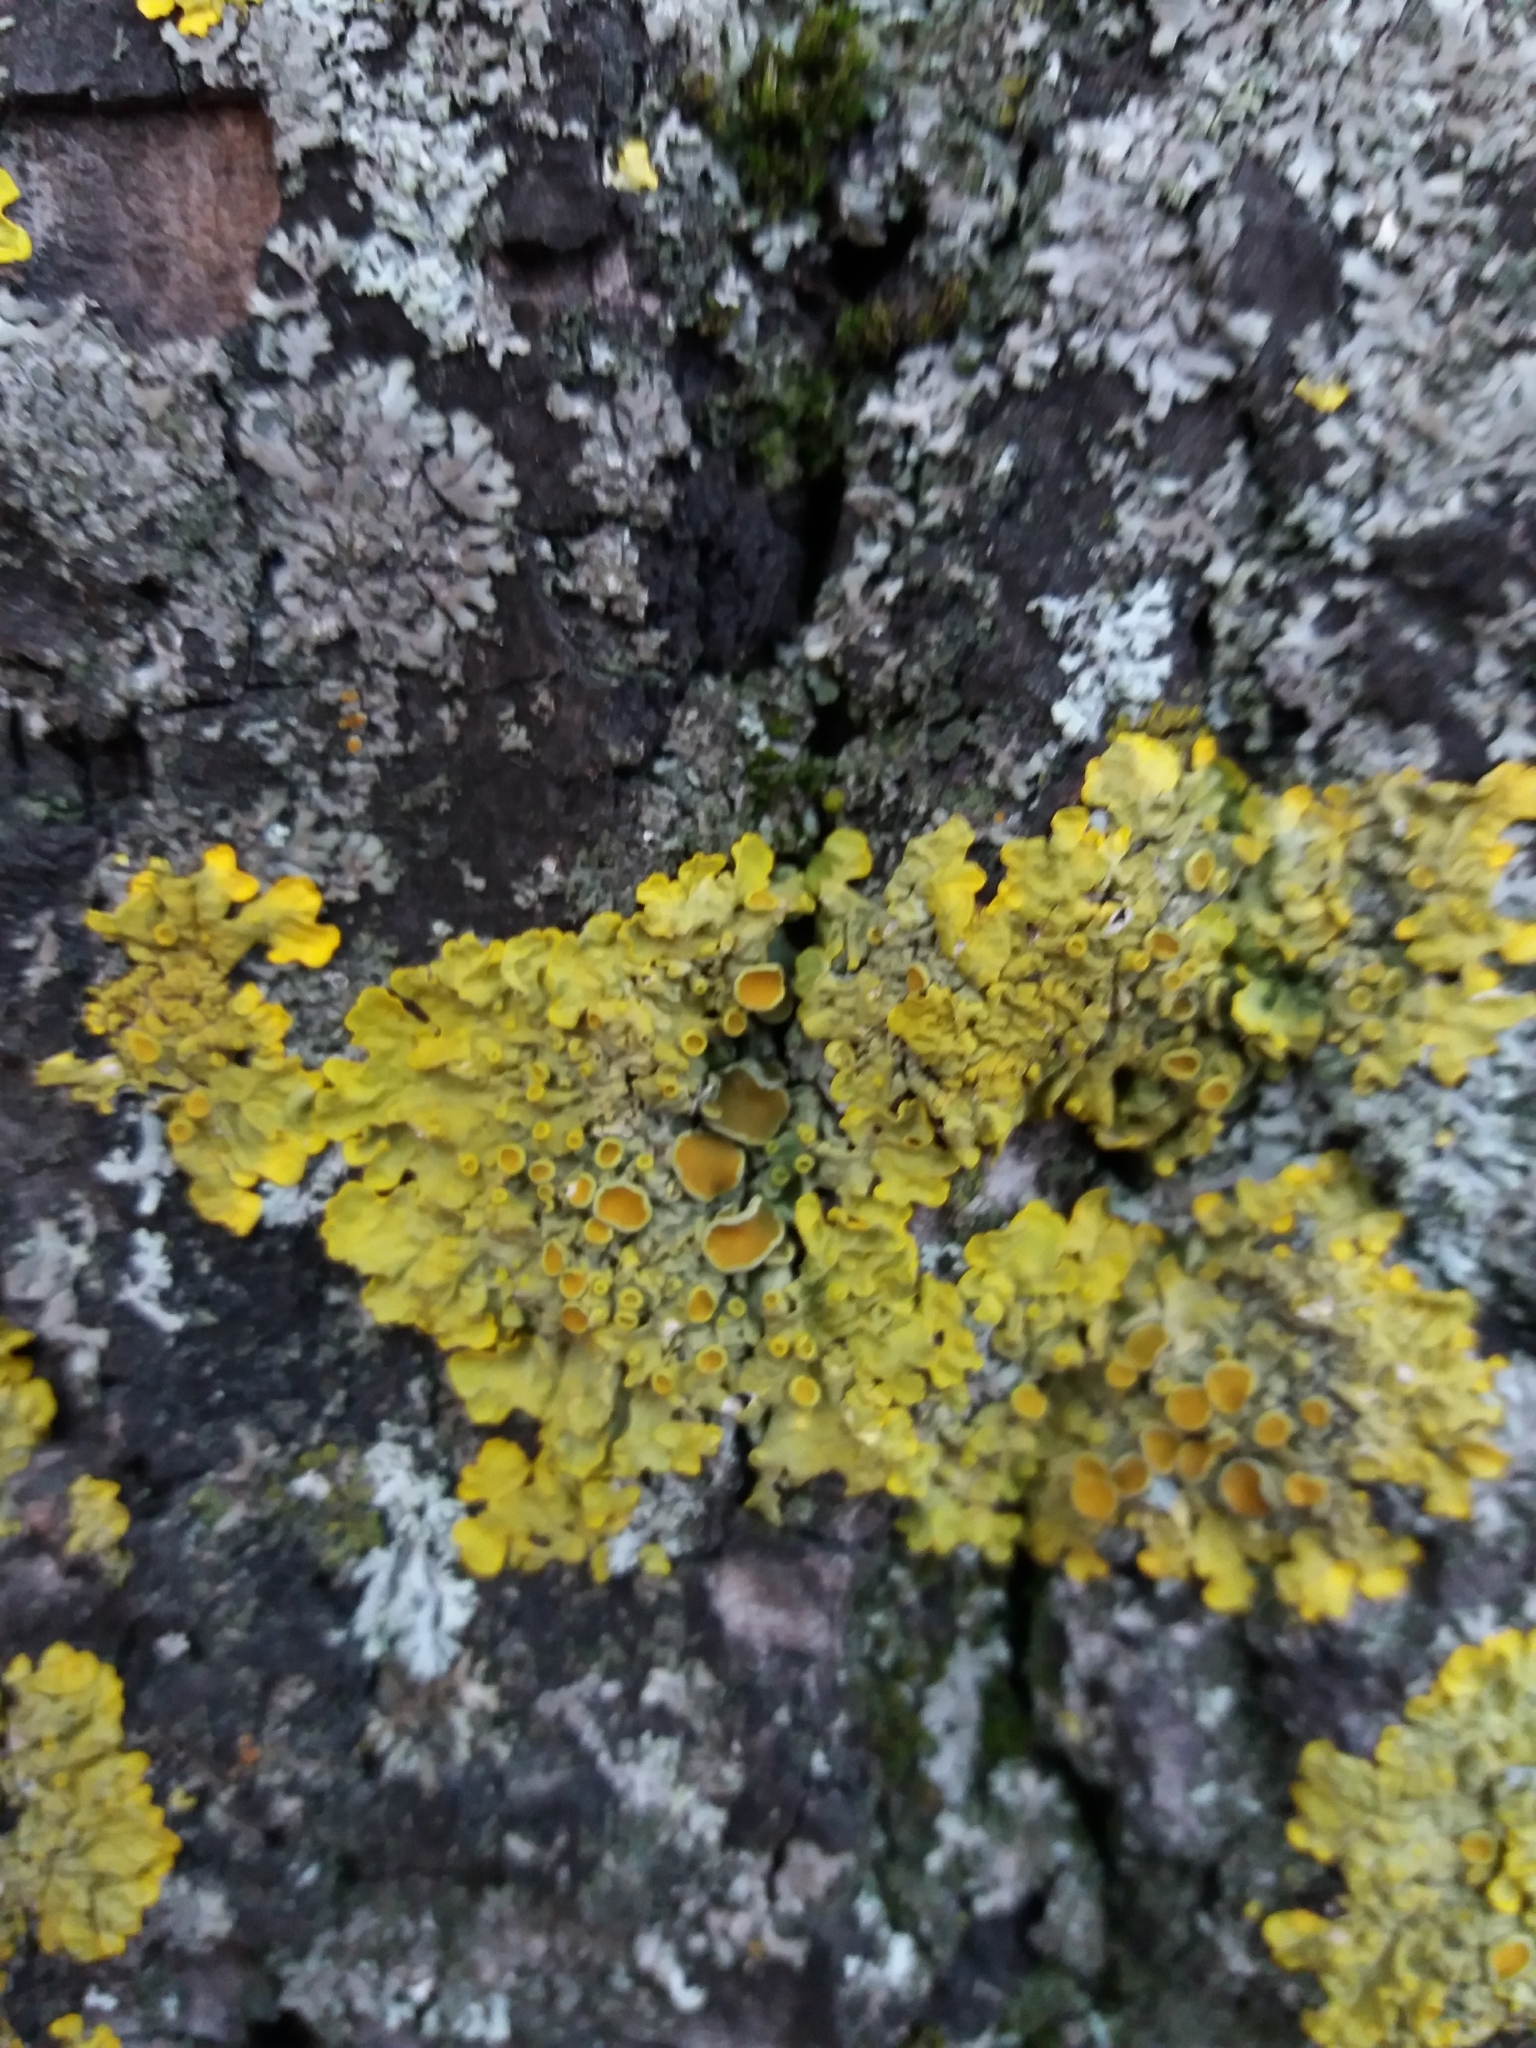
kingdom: Fungi
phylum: Ascomycota
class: Lecanoromycetes
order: Teloschistales
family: Teloschistaceae
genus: Xanthoria
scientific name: Xanthoria parietina
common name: Common orange lichen
